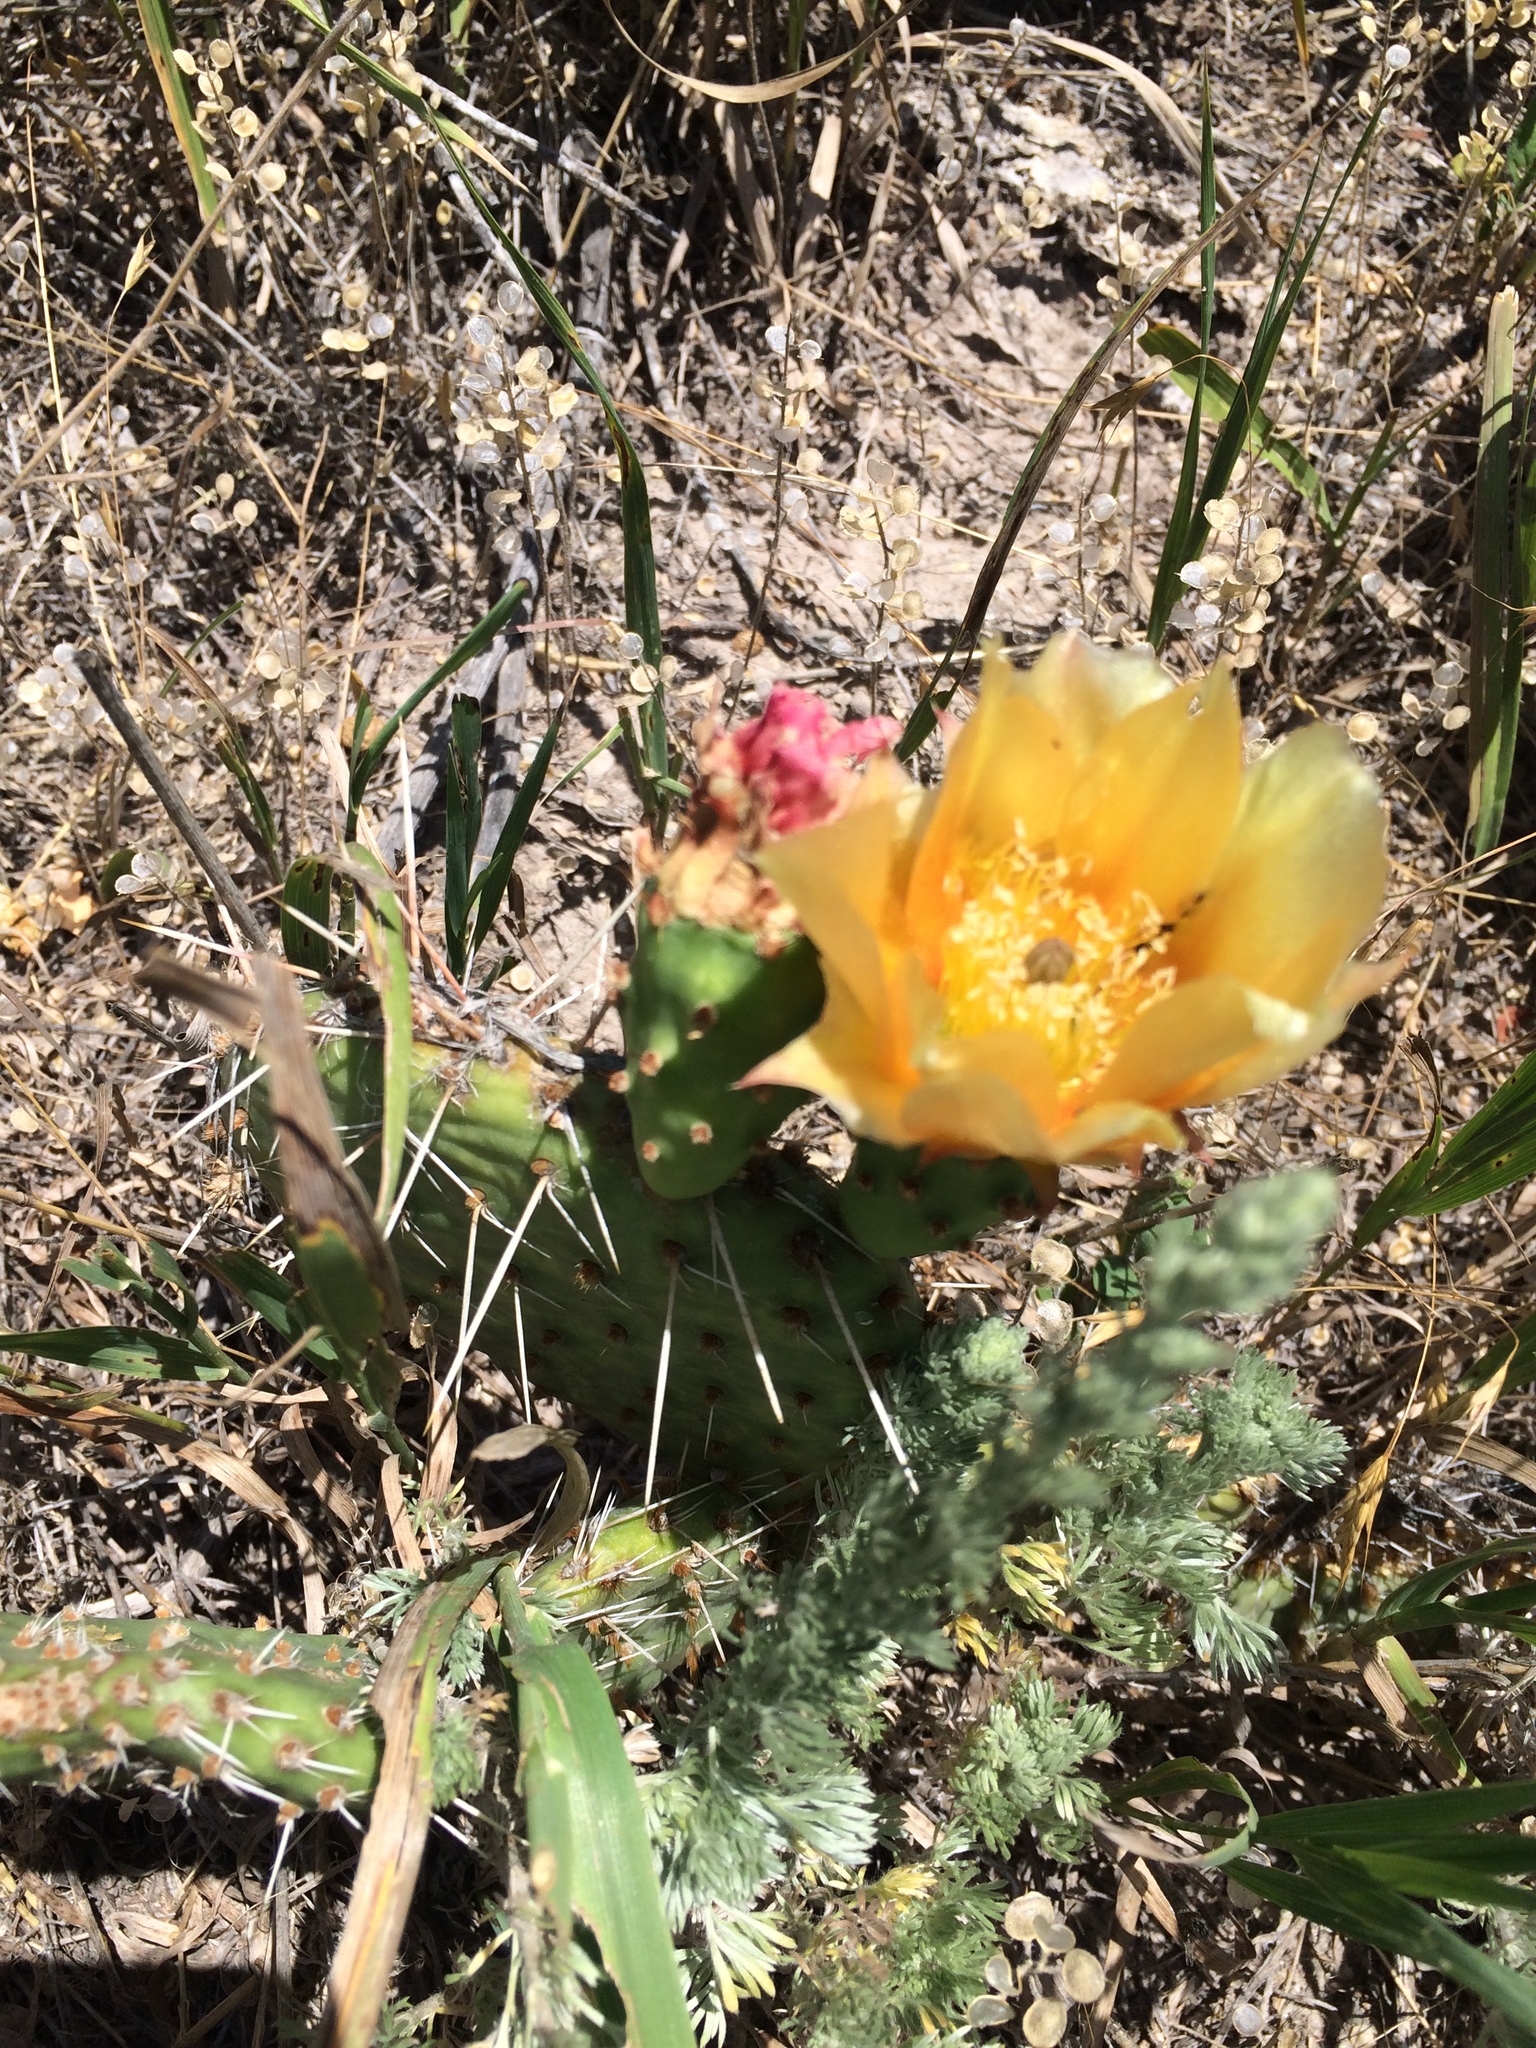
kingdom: Plantae
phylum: Tracheophyta
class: Magnoliopsida
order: Caryophyllales
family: Cactaceae
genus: Opuntia
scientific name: Opuntia macrorhiza
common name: Grassland pricklypear
